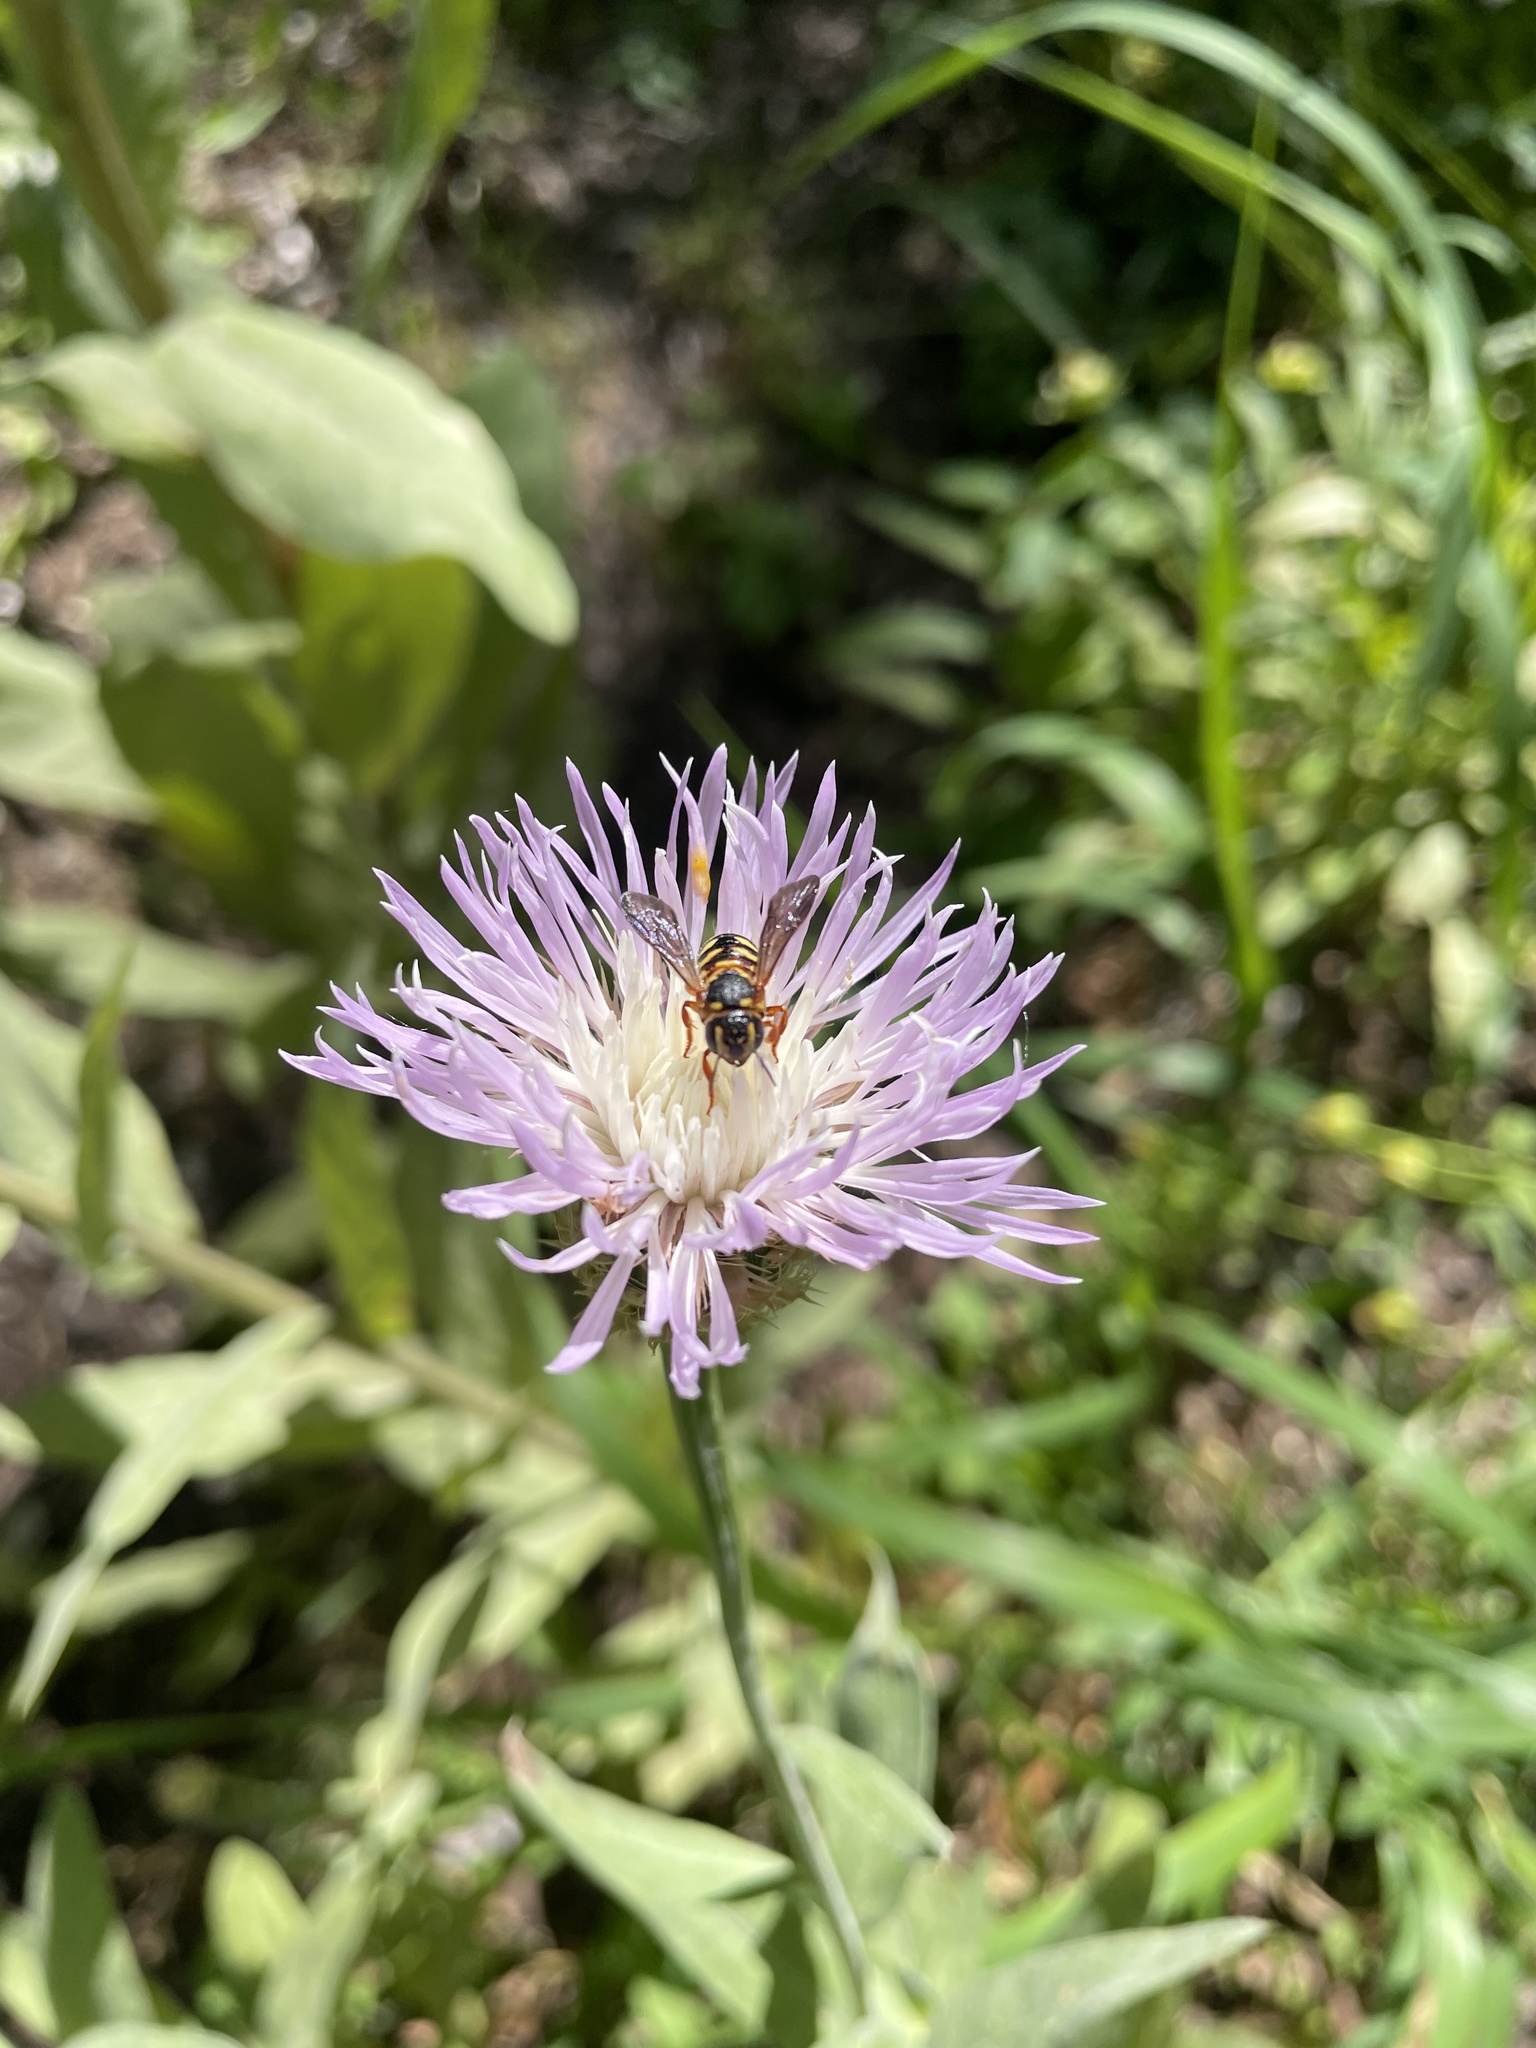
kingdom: Animalia
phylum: Arthropoda
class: Insecta
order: Hymenoptera
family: Megachilidae
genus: Dianthidium
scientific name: Dianthidium
